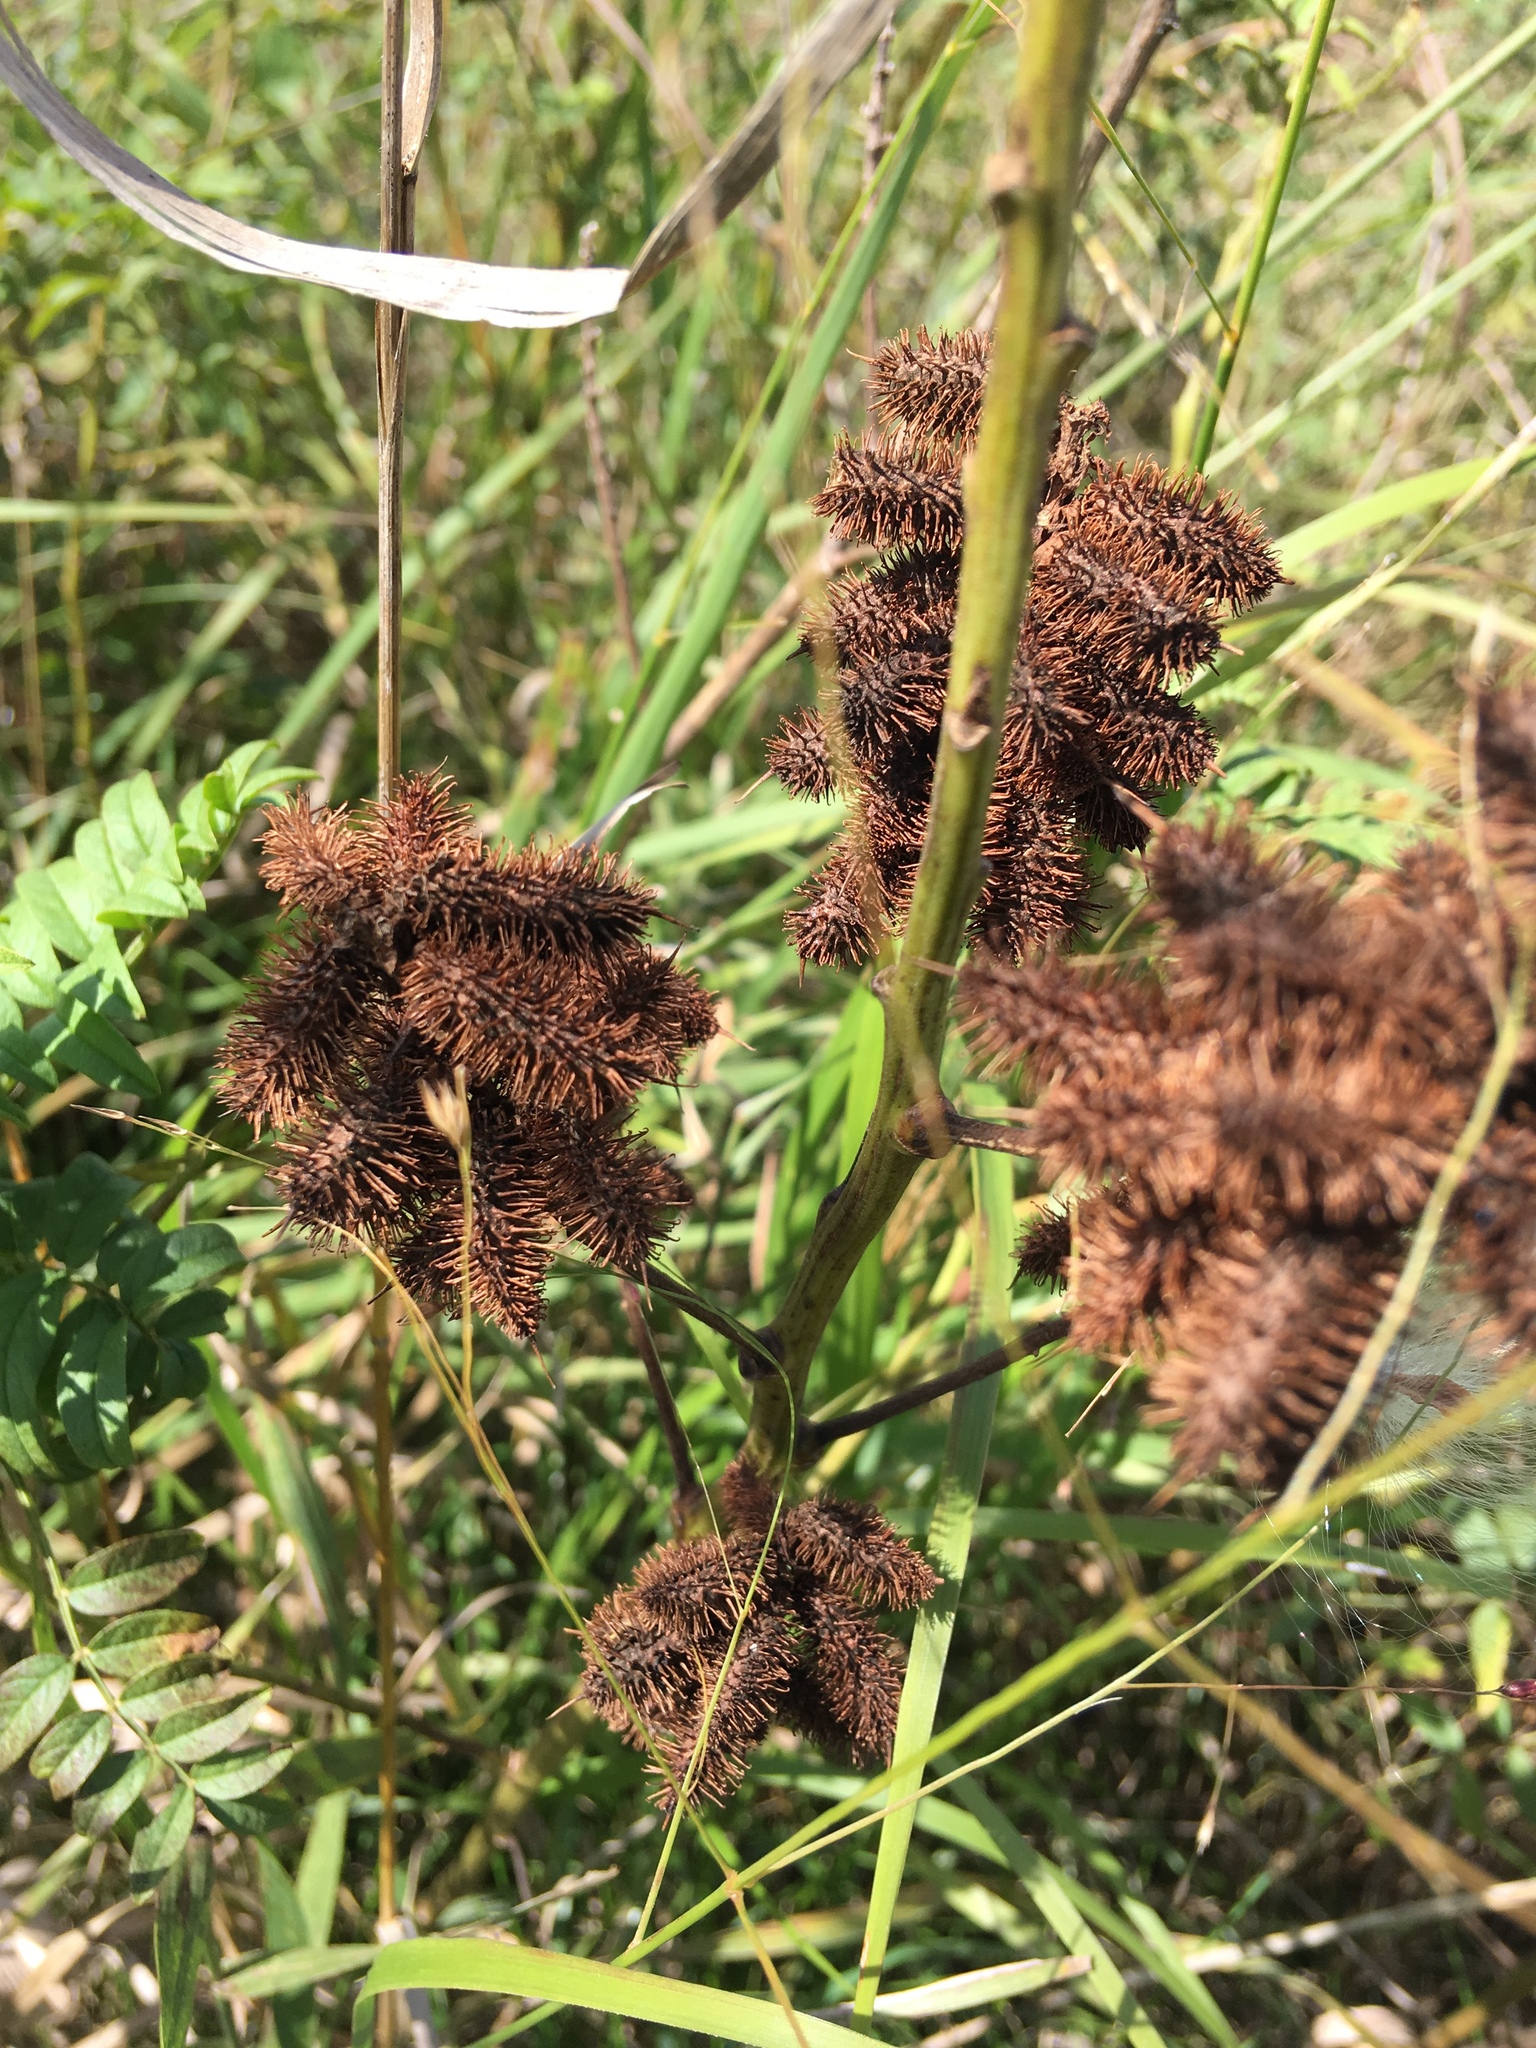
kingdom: Plantae
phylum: Tracheophyta
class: Magnoliopsida
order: Fabales
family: Fabaceae
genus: Glycyrrhiza
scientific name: Glycyrrhiza lepidota
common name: American liquorice
